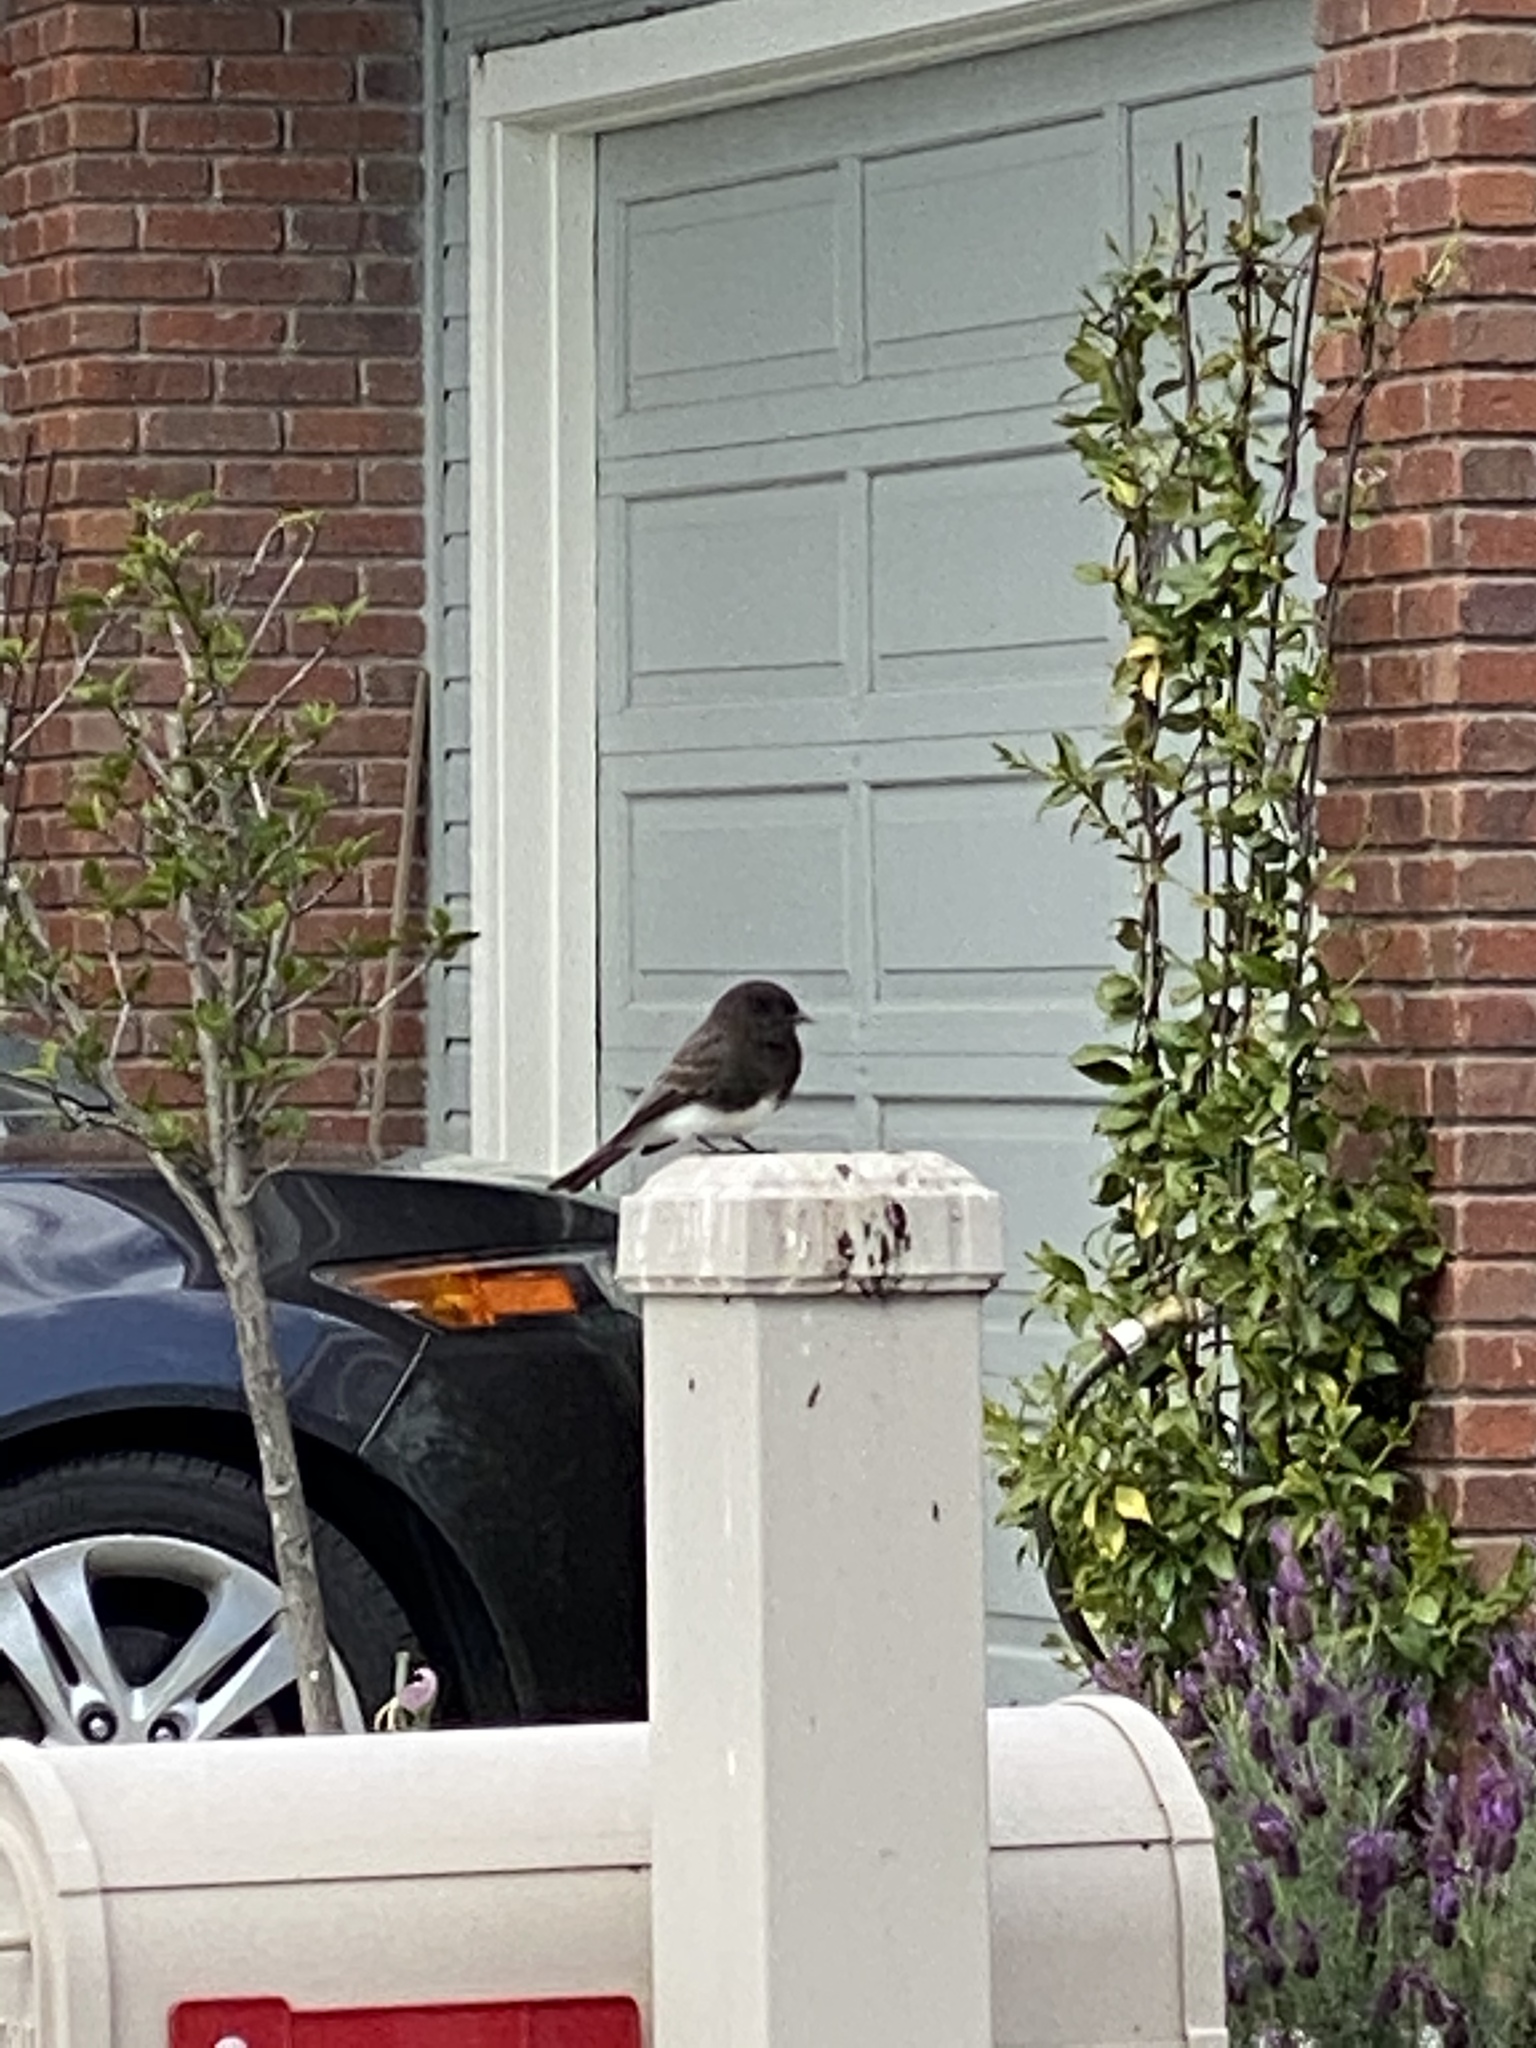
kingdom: Animalia
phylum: Chordata
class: Aves
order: Passeriformes
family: Tyrannidae
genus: Sayornis
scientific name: Sayornis nigricans
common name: Black phoebe
